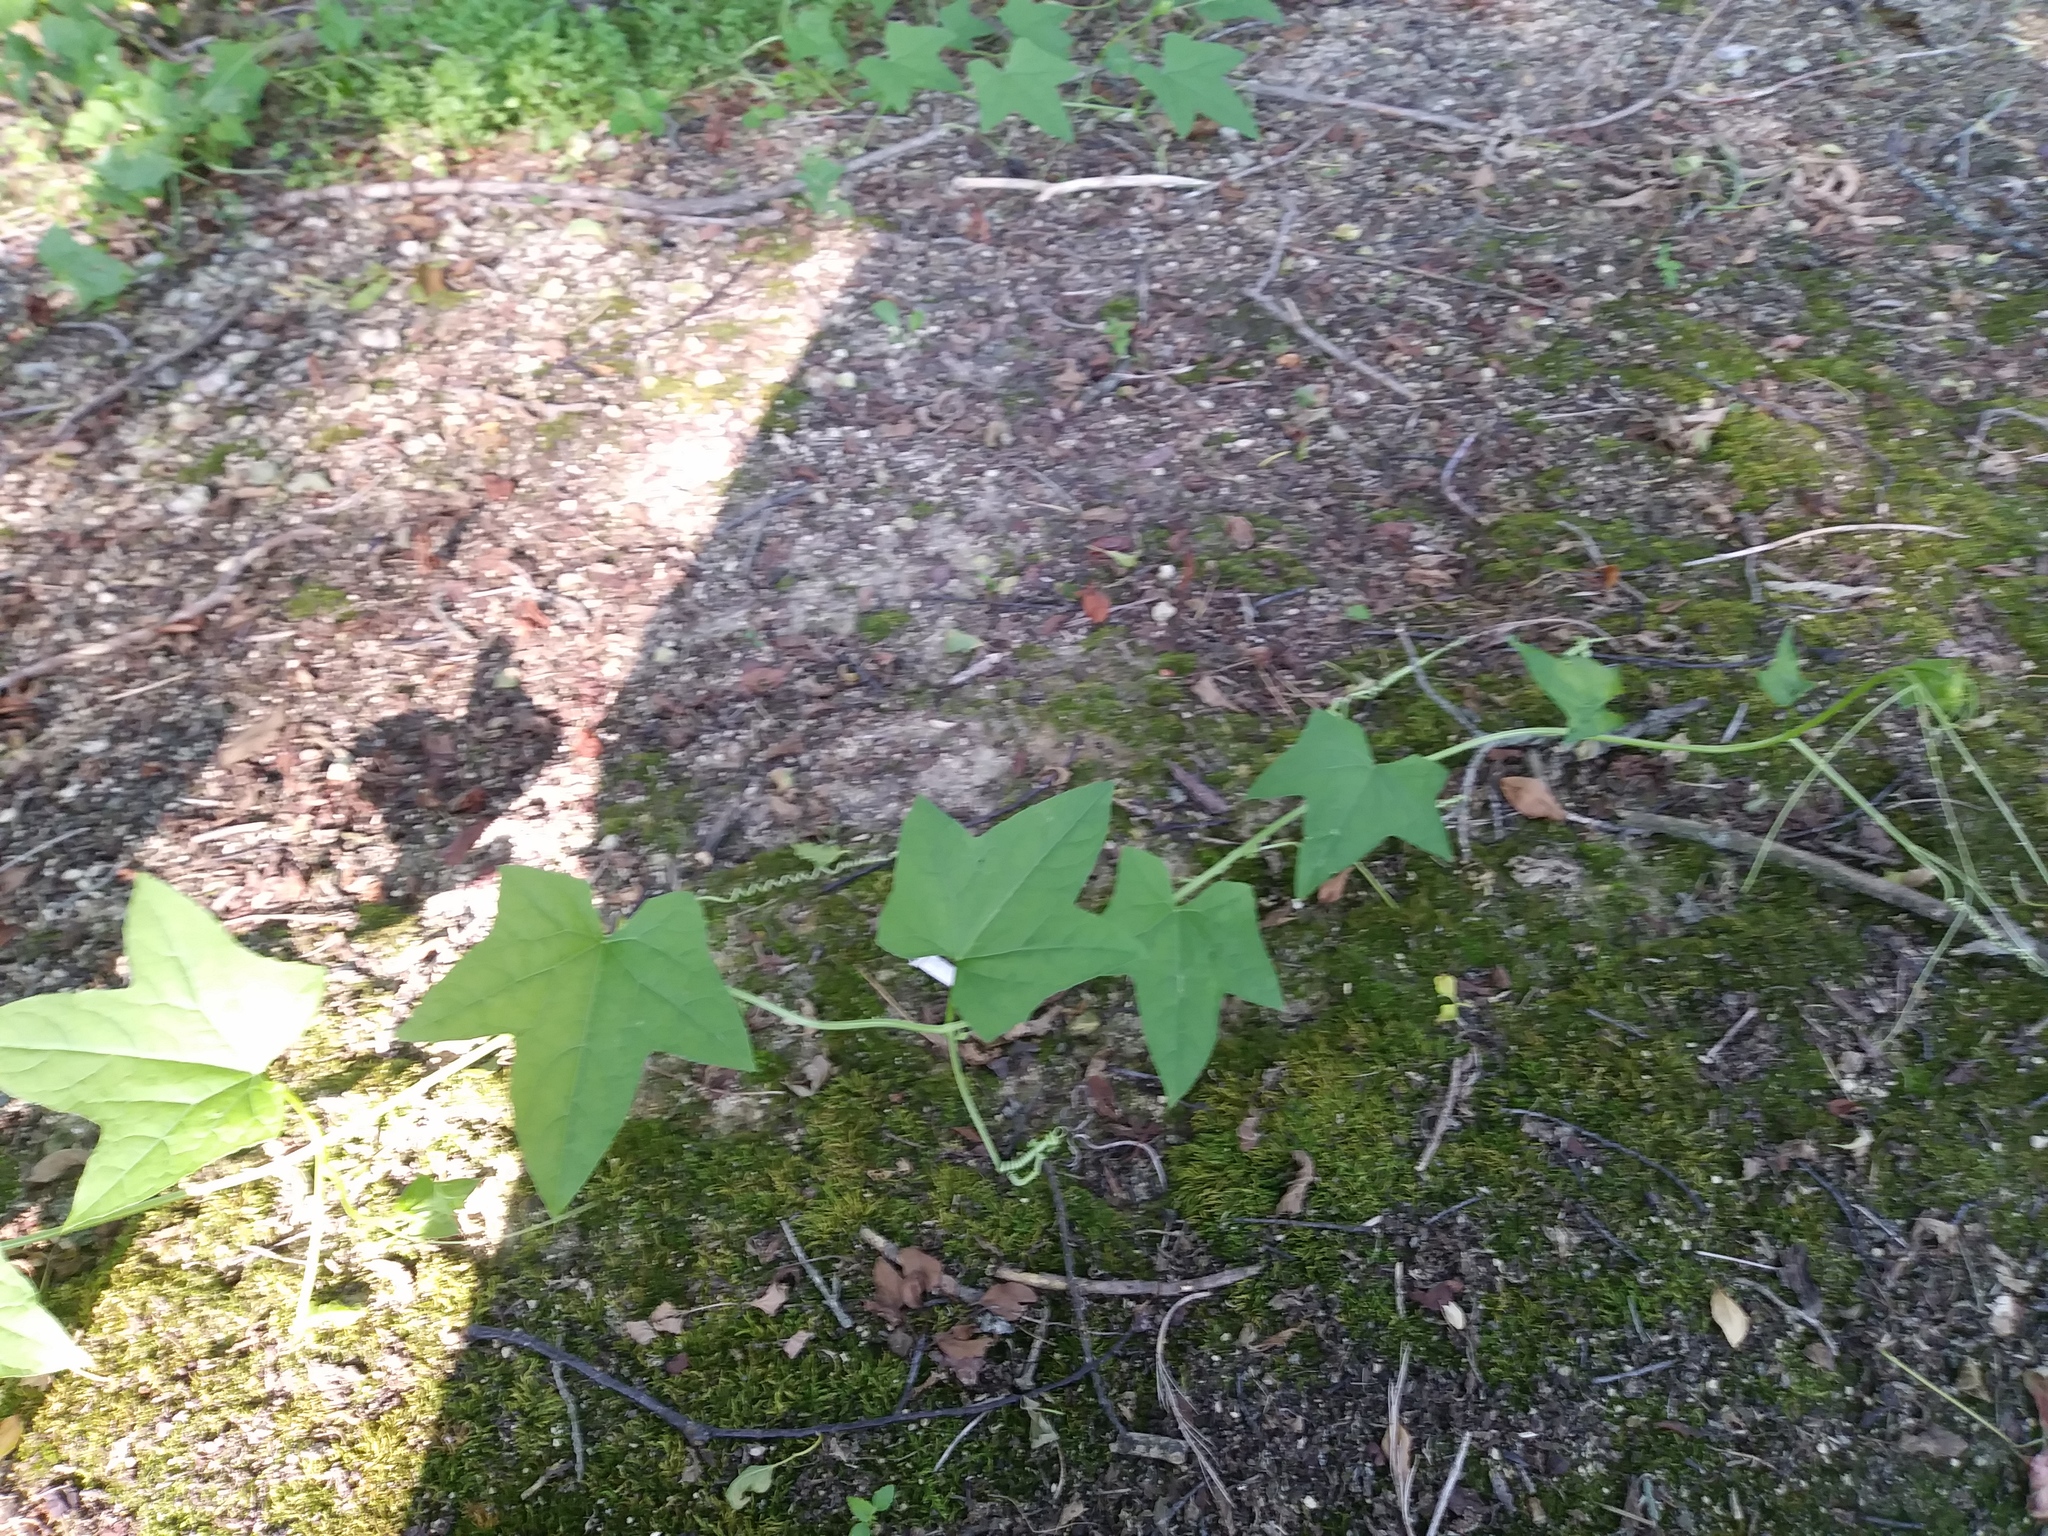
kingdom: Plantae
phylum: Tracheophyta
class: Magnoliopsida
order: Cucurbitales
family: Cucurbitaceae
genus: Echinocystis
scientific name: Echinocystis lobata
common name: Wild cucumber
